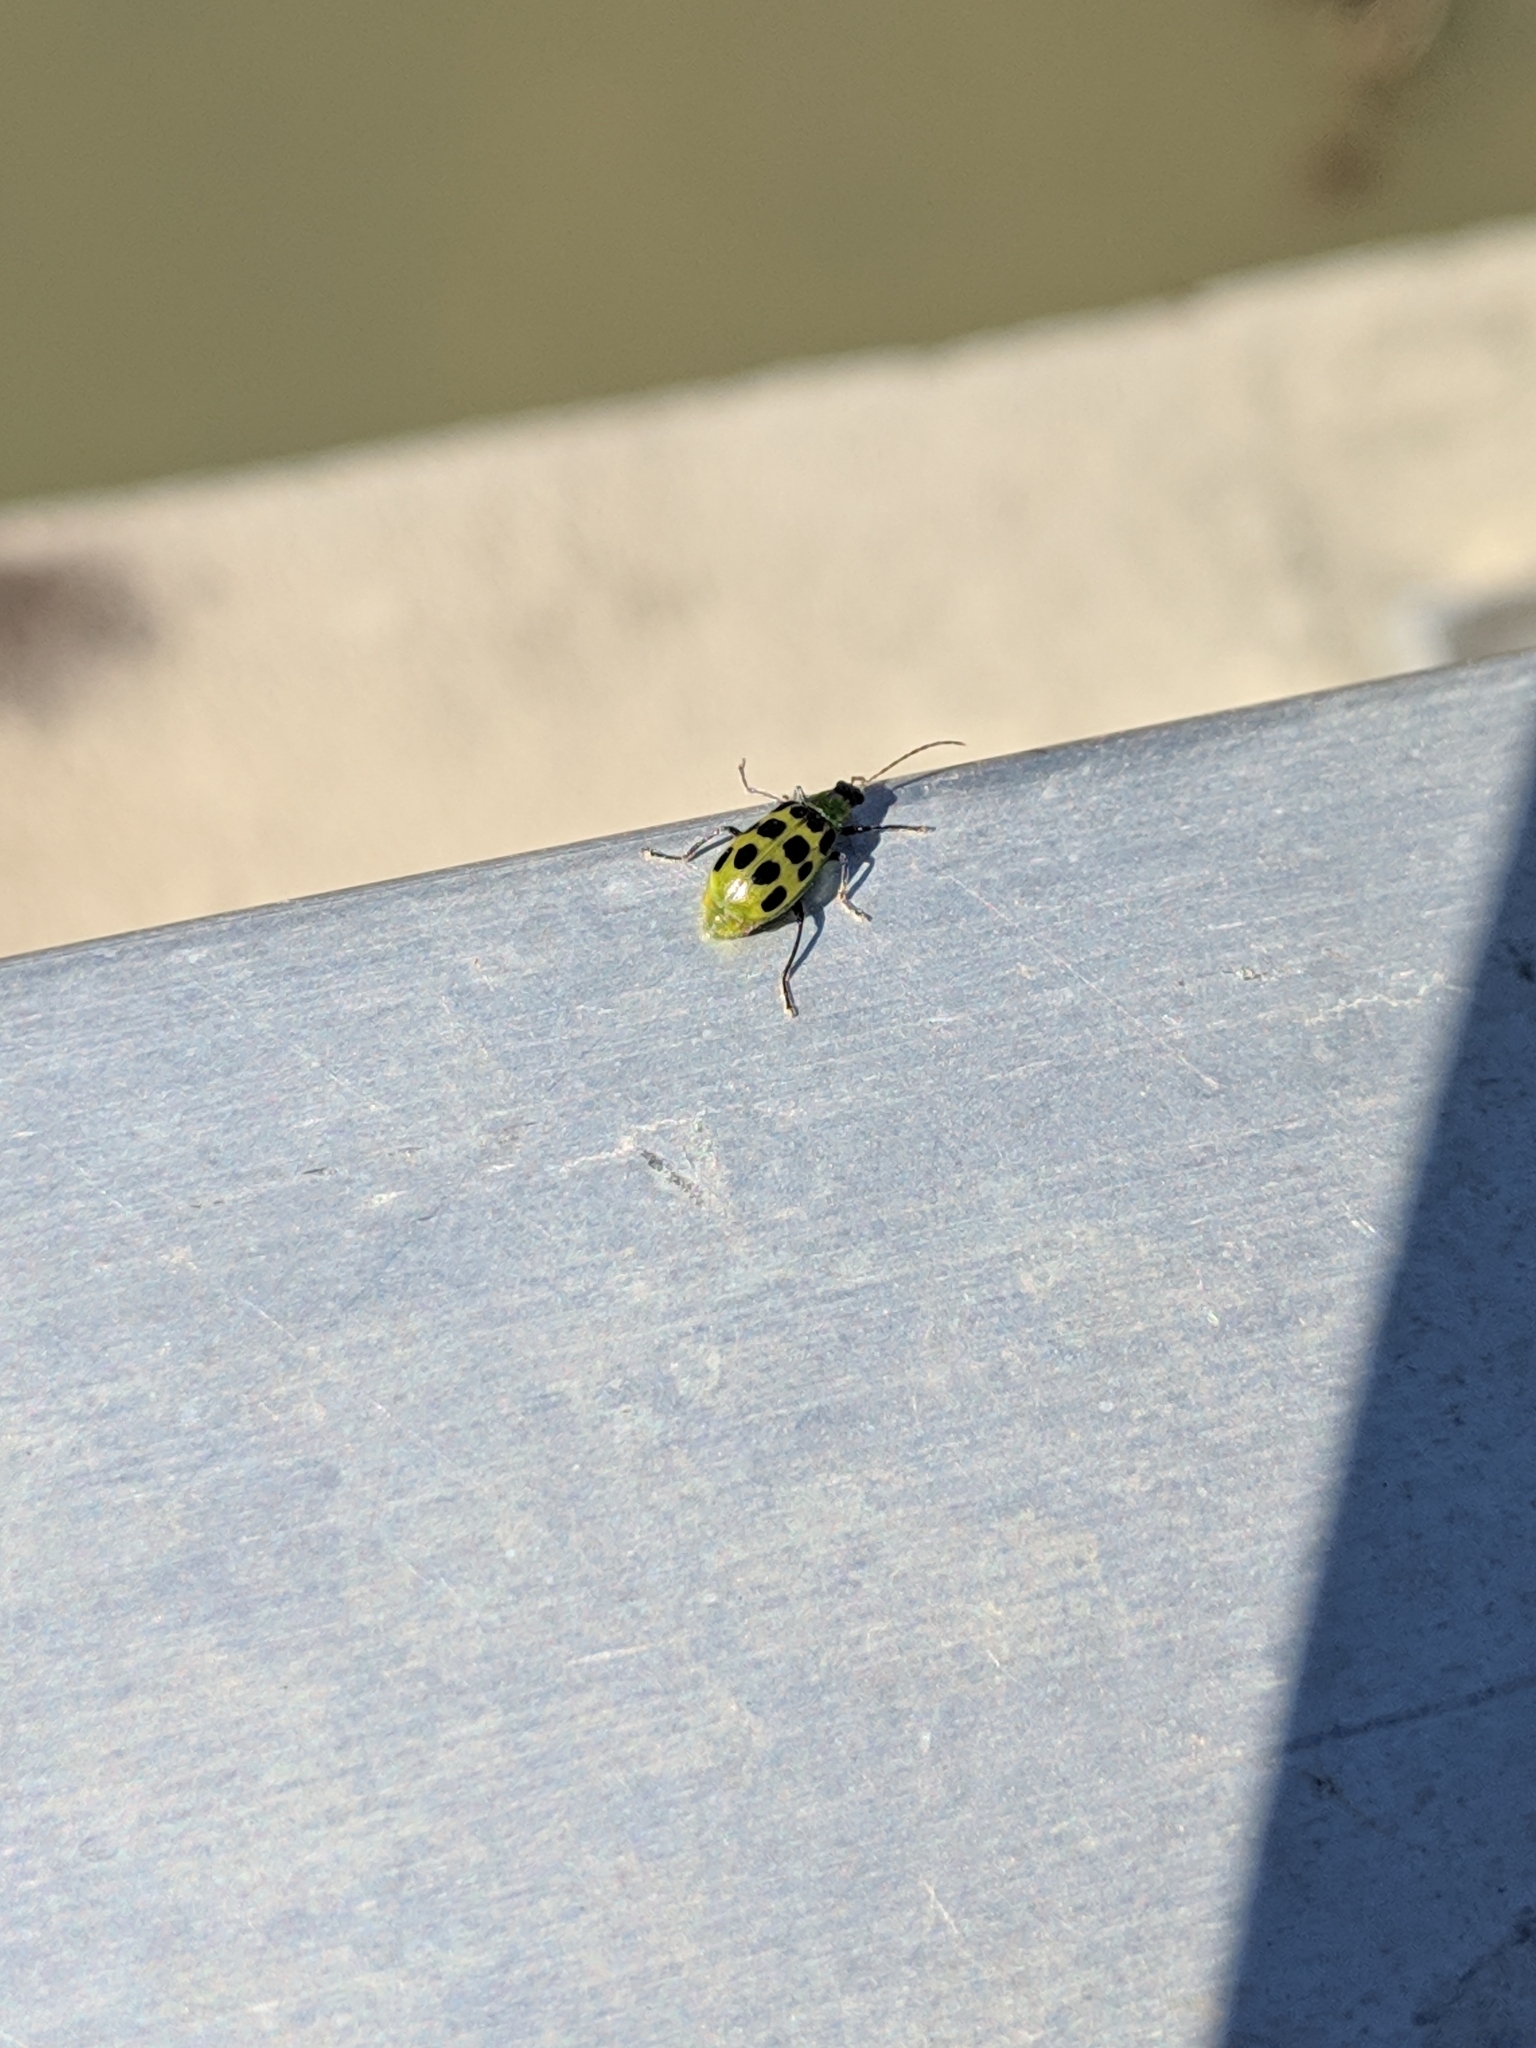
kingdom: Animalia
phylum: Arthropoda
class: Insecta
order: Coleoptera
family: Chrysomelidae
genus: Diabrotica
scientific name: Diabrotica undecimpunctata
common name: Spotted cucumber beetle
